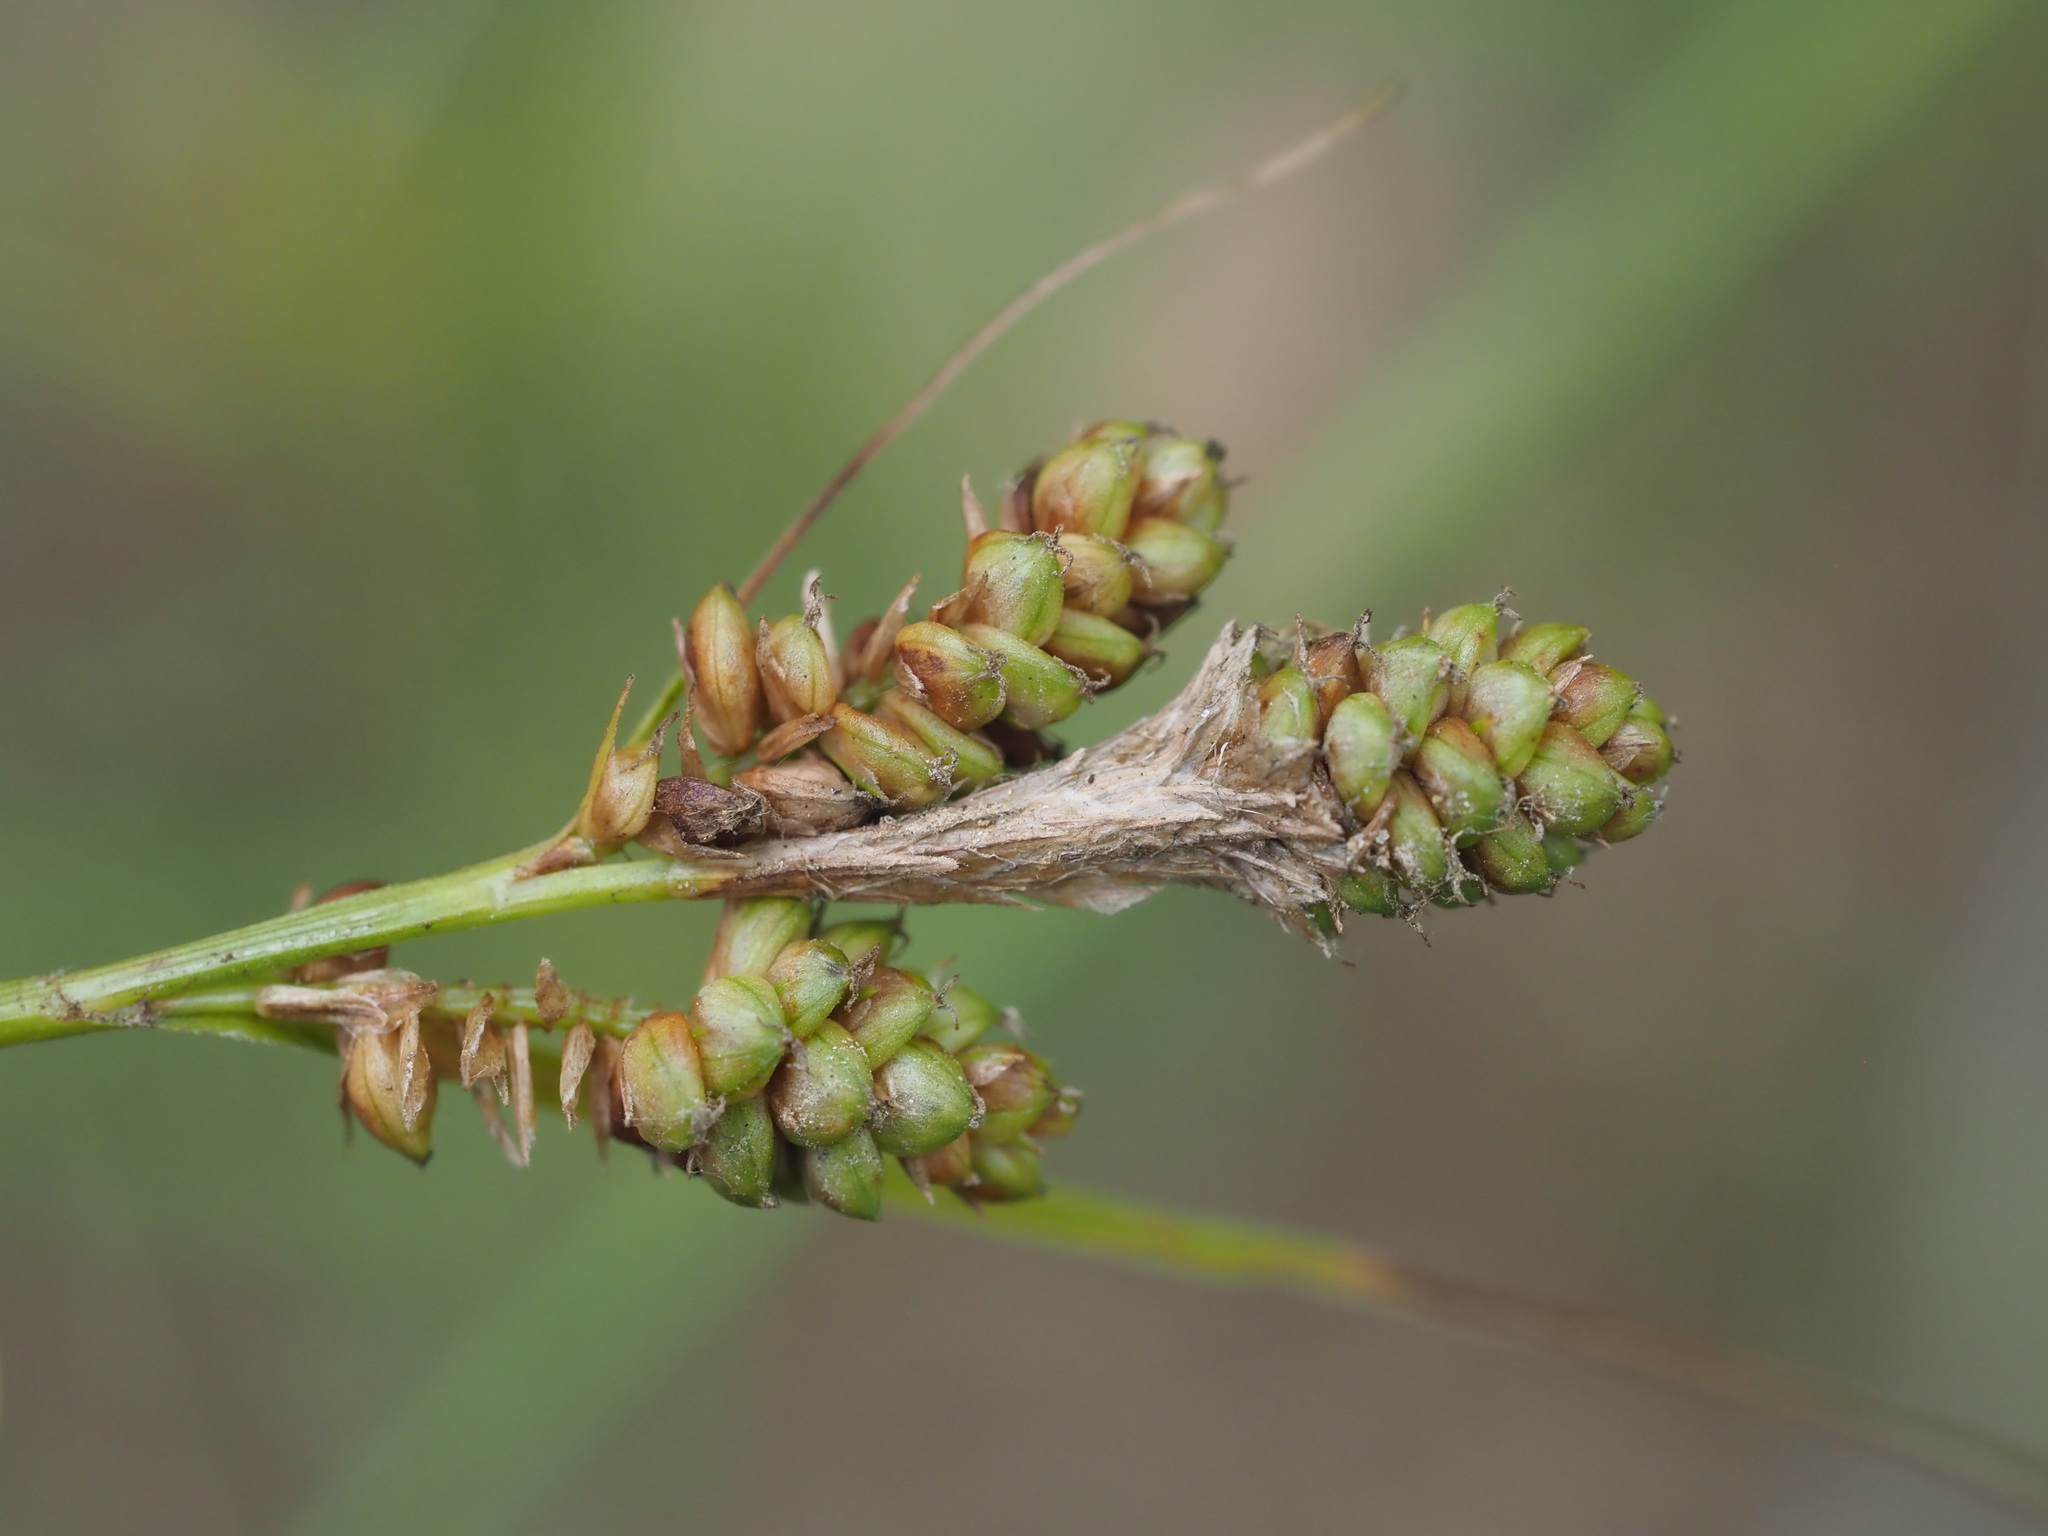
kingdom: Plantae
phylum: Tracheophyta
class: Liliopsida
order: Poales
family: Cyperaceae
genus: Carex
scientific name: Carex hirsutella
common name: Fuzzy wuzzy sedge
